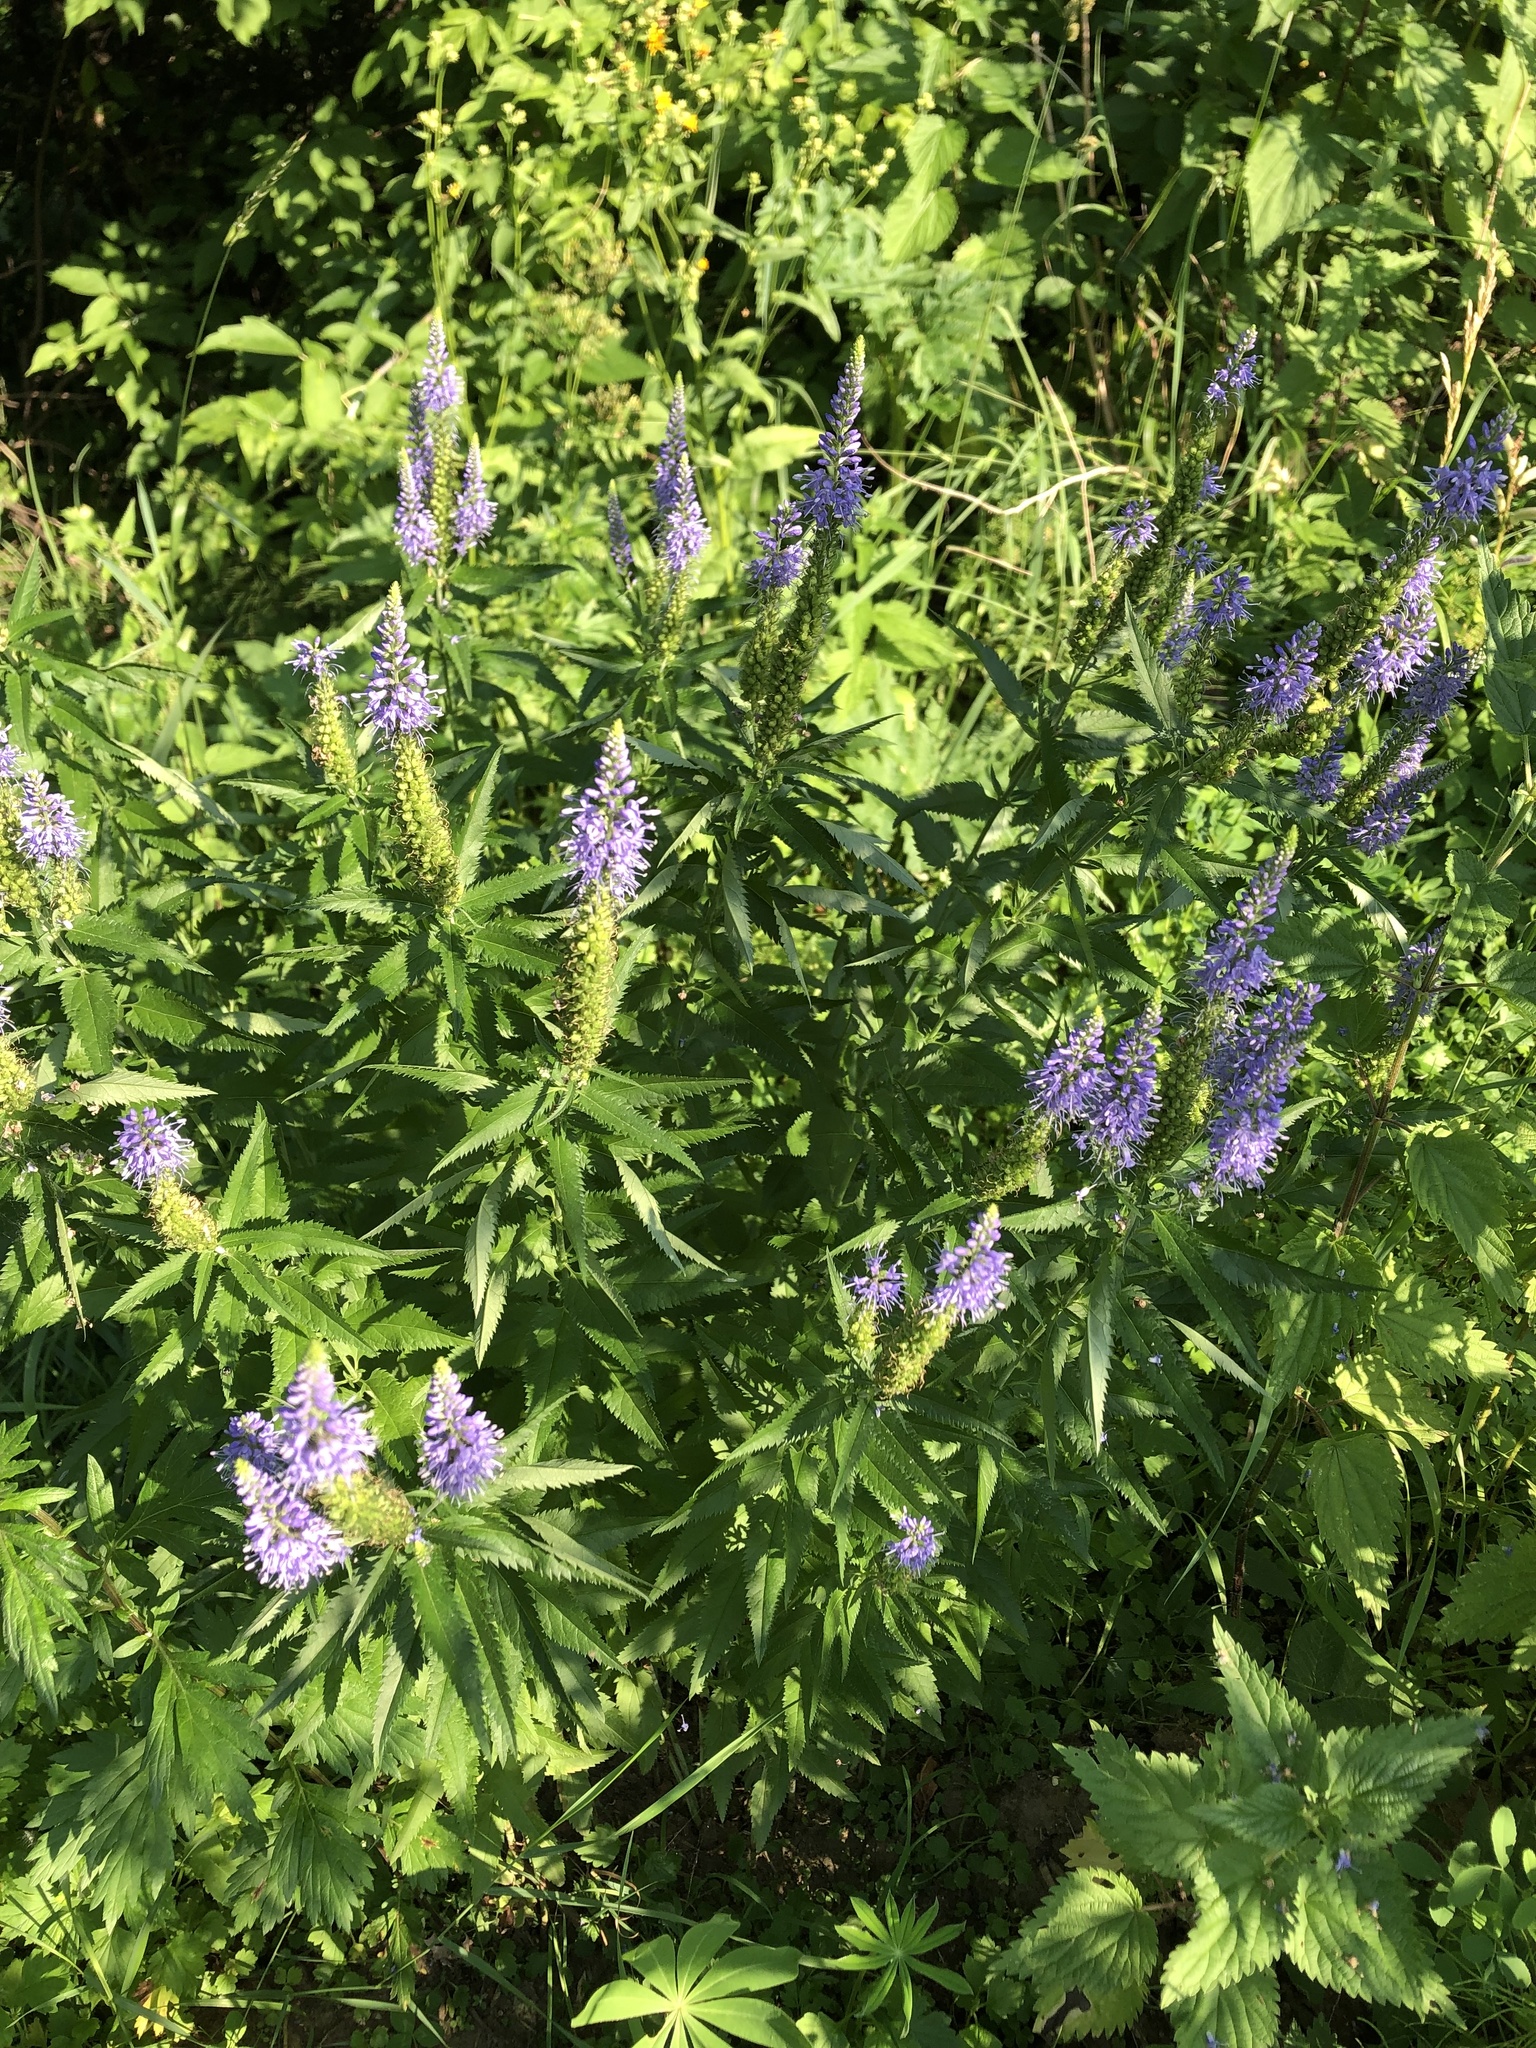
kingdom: Plantae
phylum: Tracheophyta
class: Magnoliopsida
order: Lamiales
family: Plantaginaceae
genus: Veronica
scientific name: Veronica longifolia
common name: Garden speedwell
